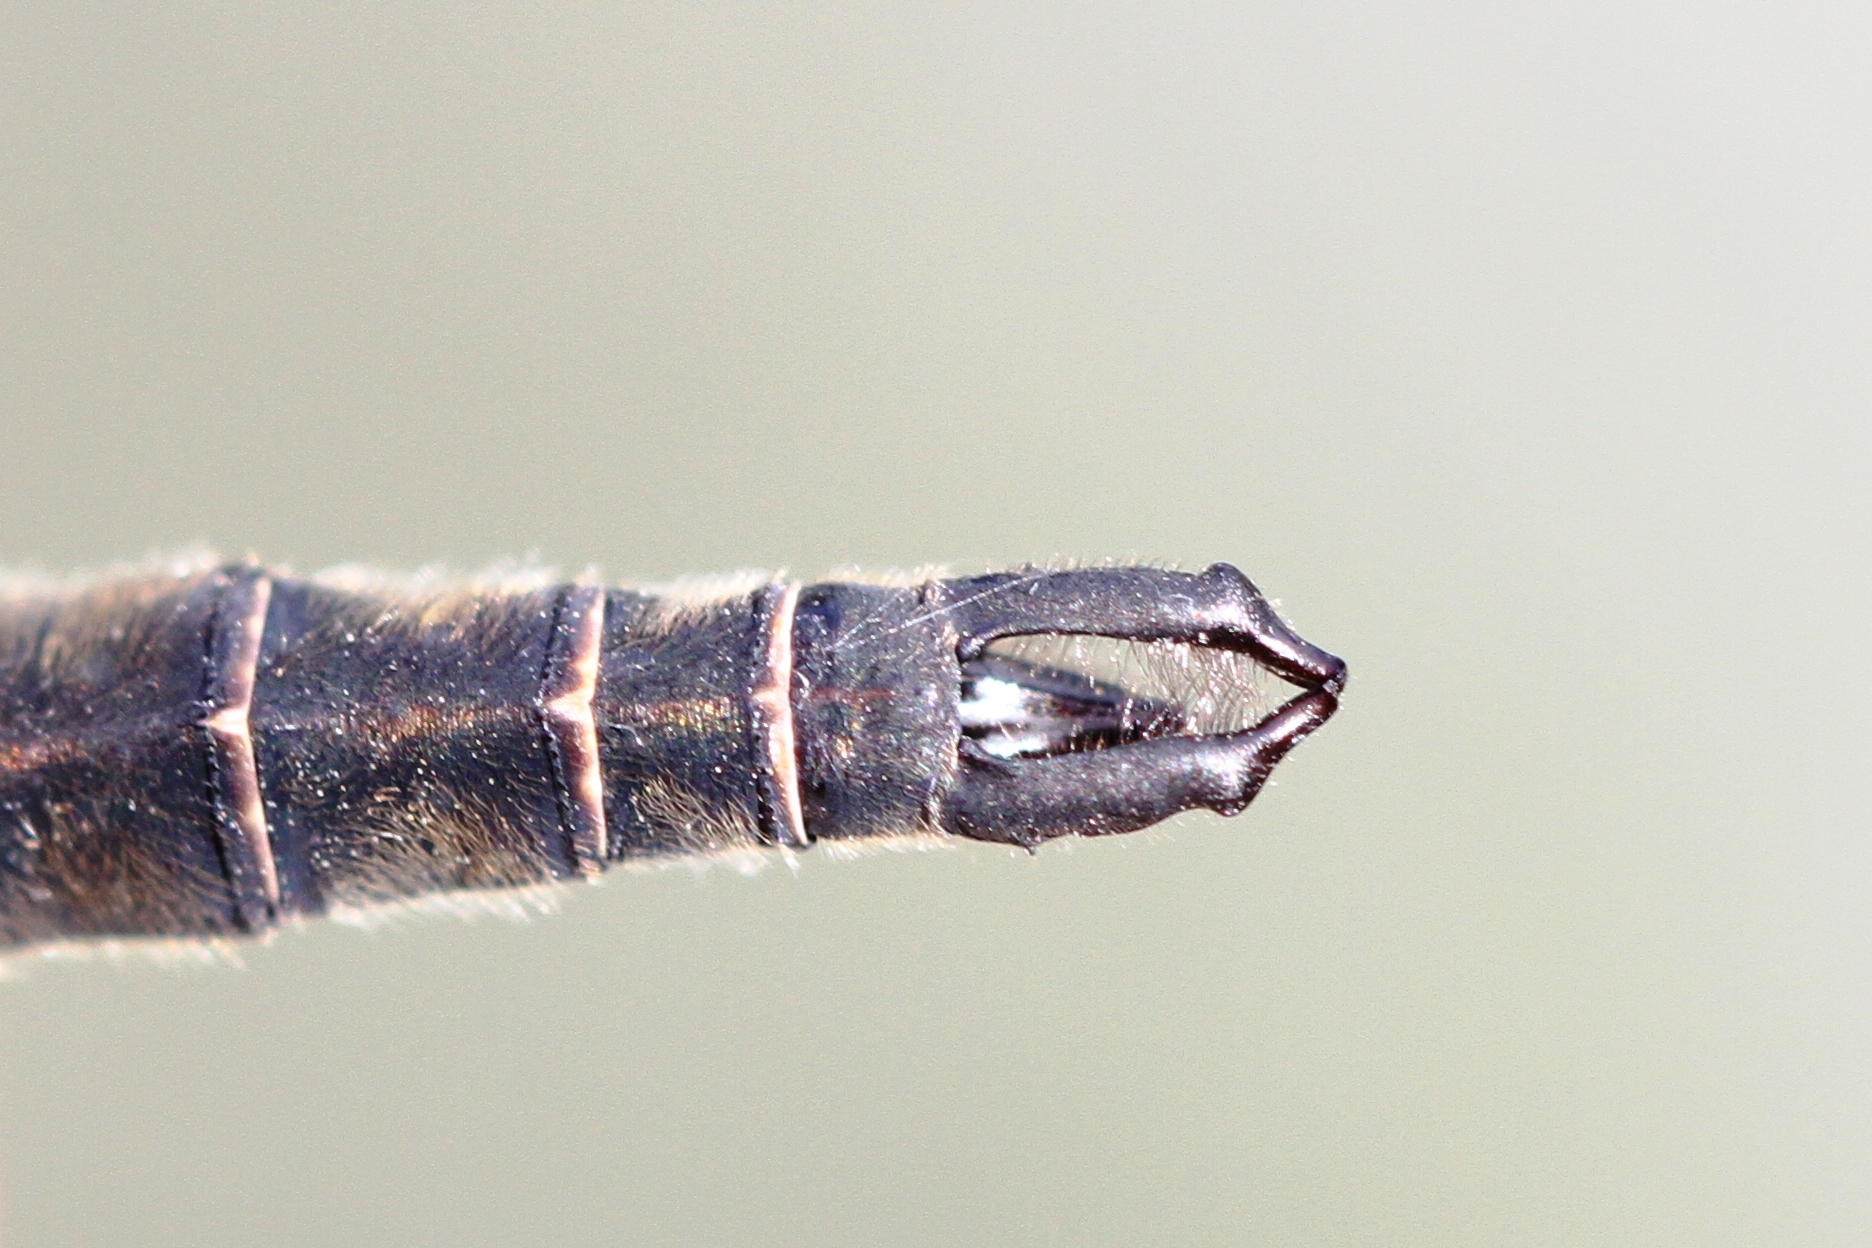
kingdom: Animalia
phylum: Arthropoda
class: Insecta
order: Odonata
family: Corduliidae
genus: Somatochlora
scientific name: Somatochlora brevicincta
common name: Quebec emerald
